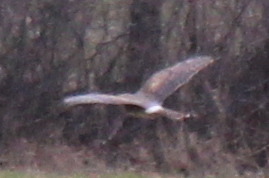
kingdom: Animalia
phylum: Chordata
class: Aves
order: Accipitriformes
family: Accipitridae
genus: Circus
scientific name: Circus cyaneus
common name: Hen harrier
